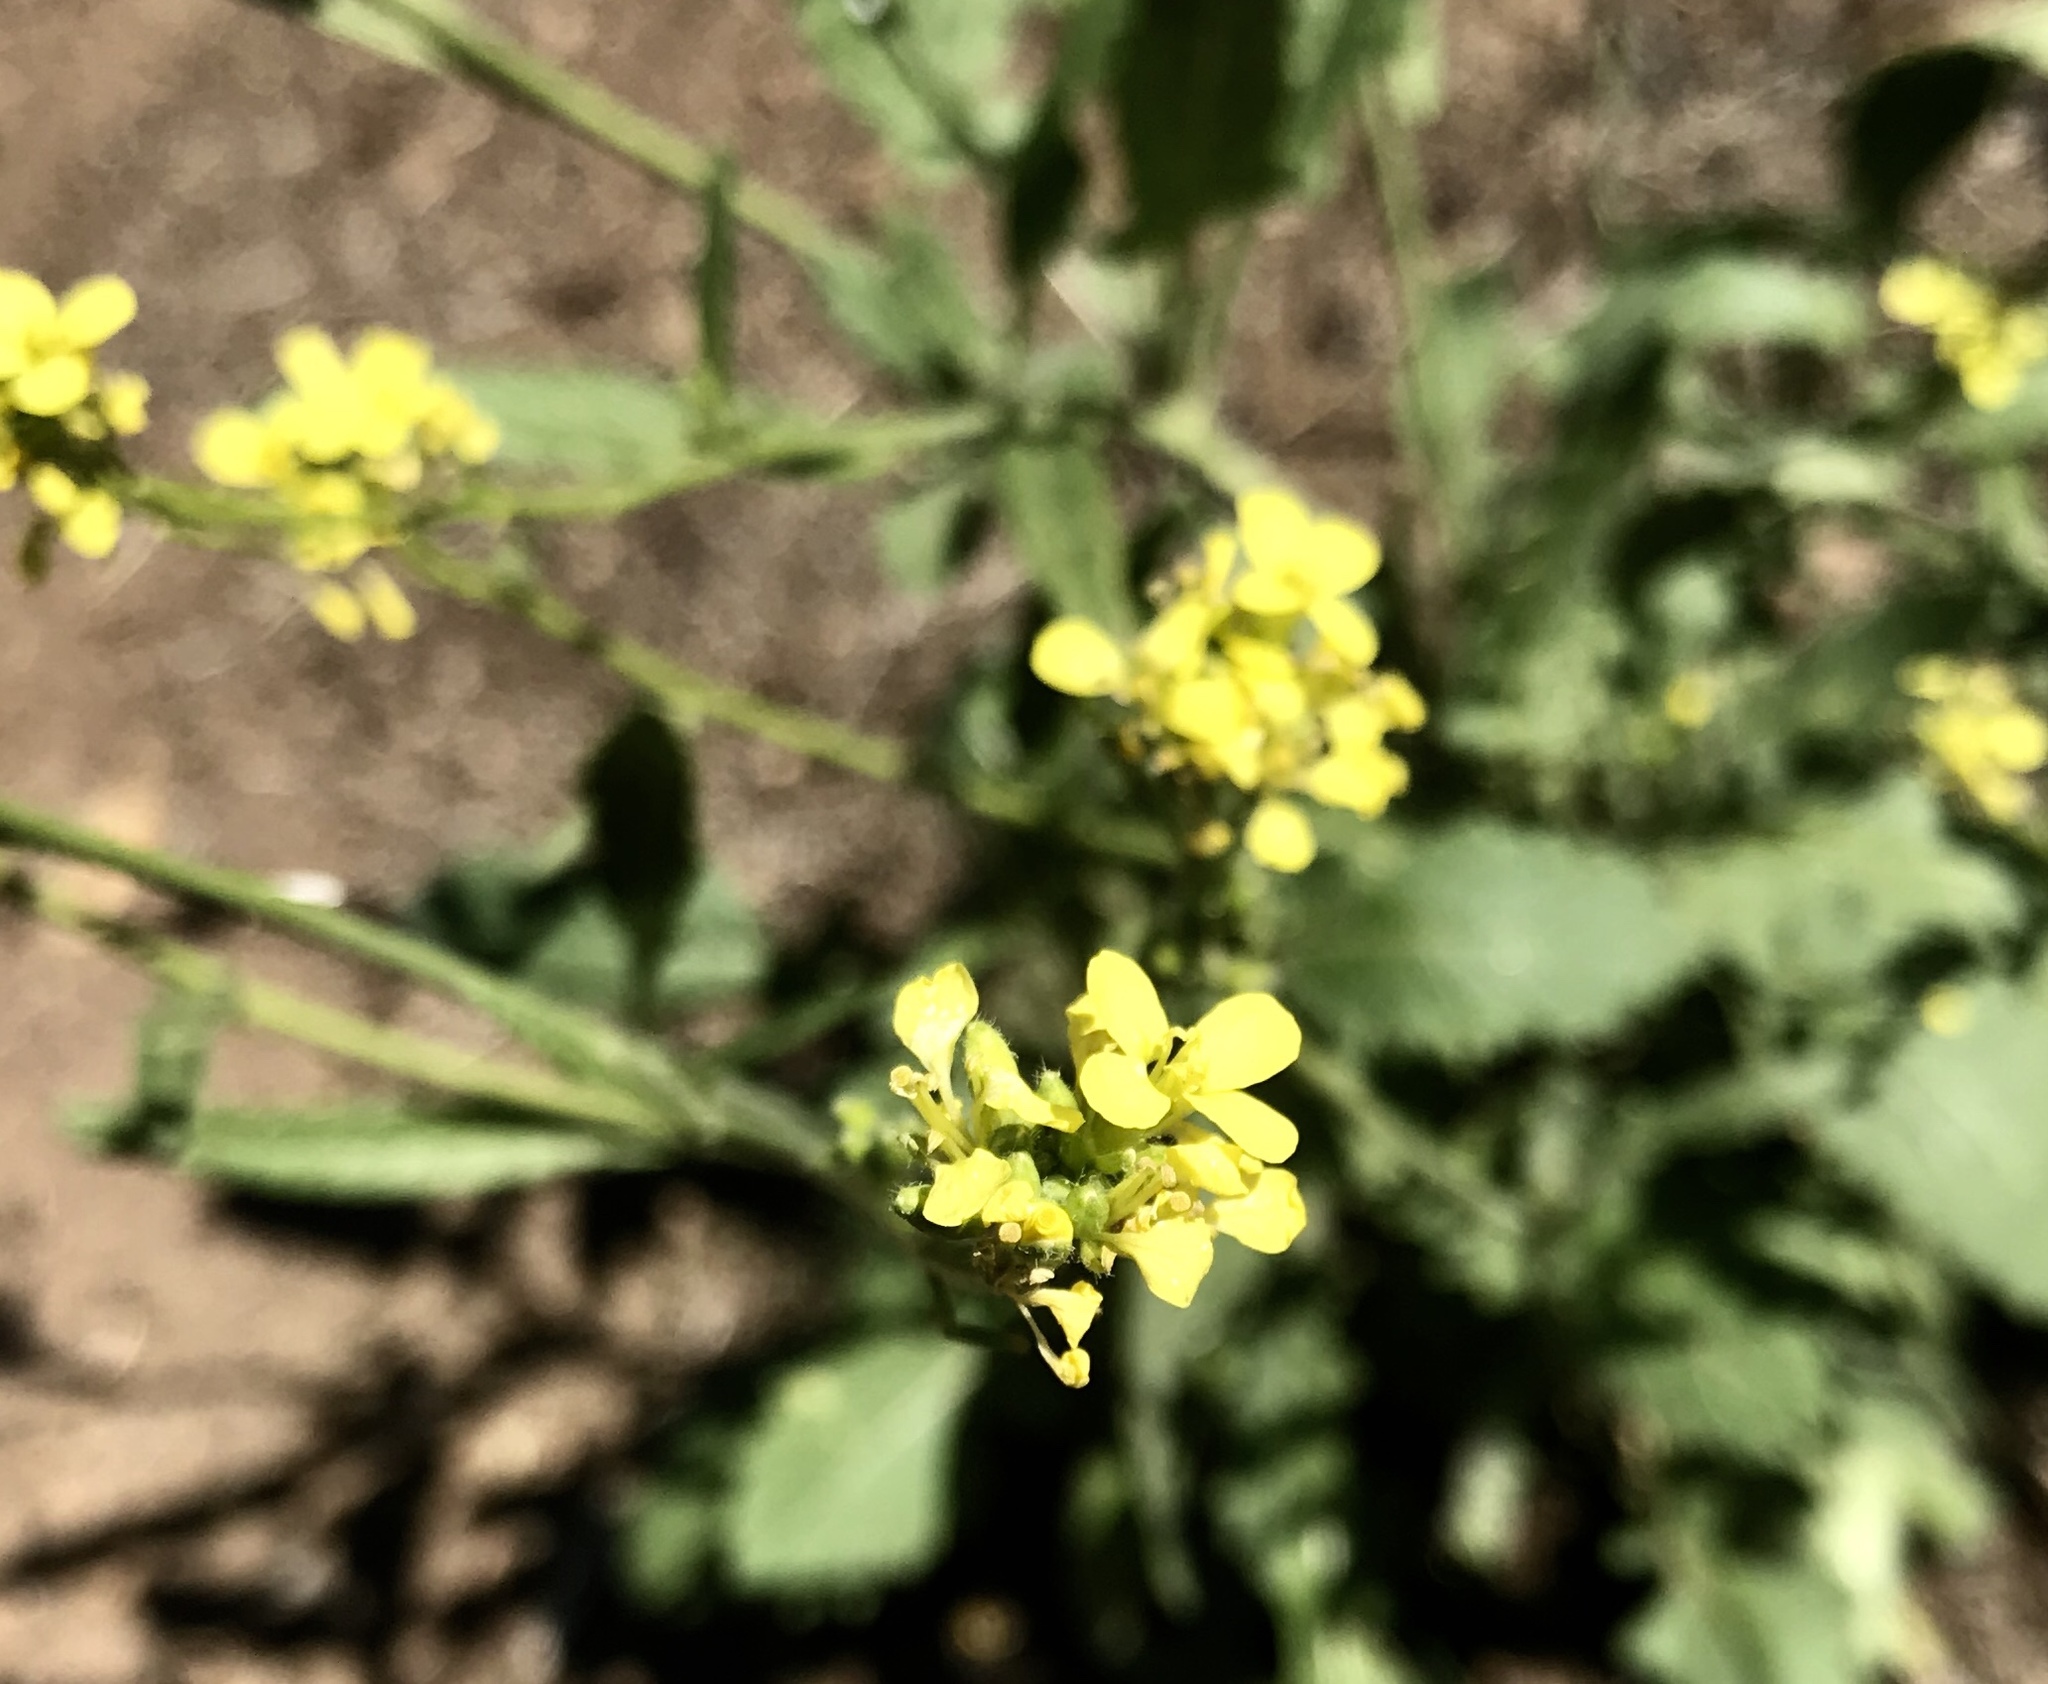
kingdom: Plantae
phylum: Tracheophyta
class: Magnoliopsida
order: Brassicales
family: Brassicaceae
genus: Hirschfeldia
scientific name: Hirschfeldia incana
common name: Hoary mustard
